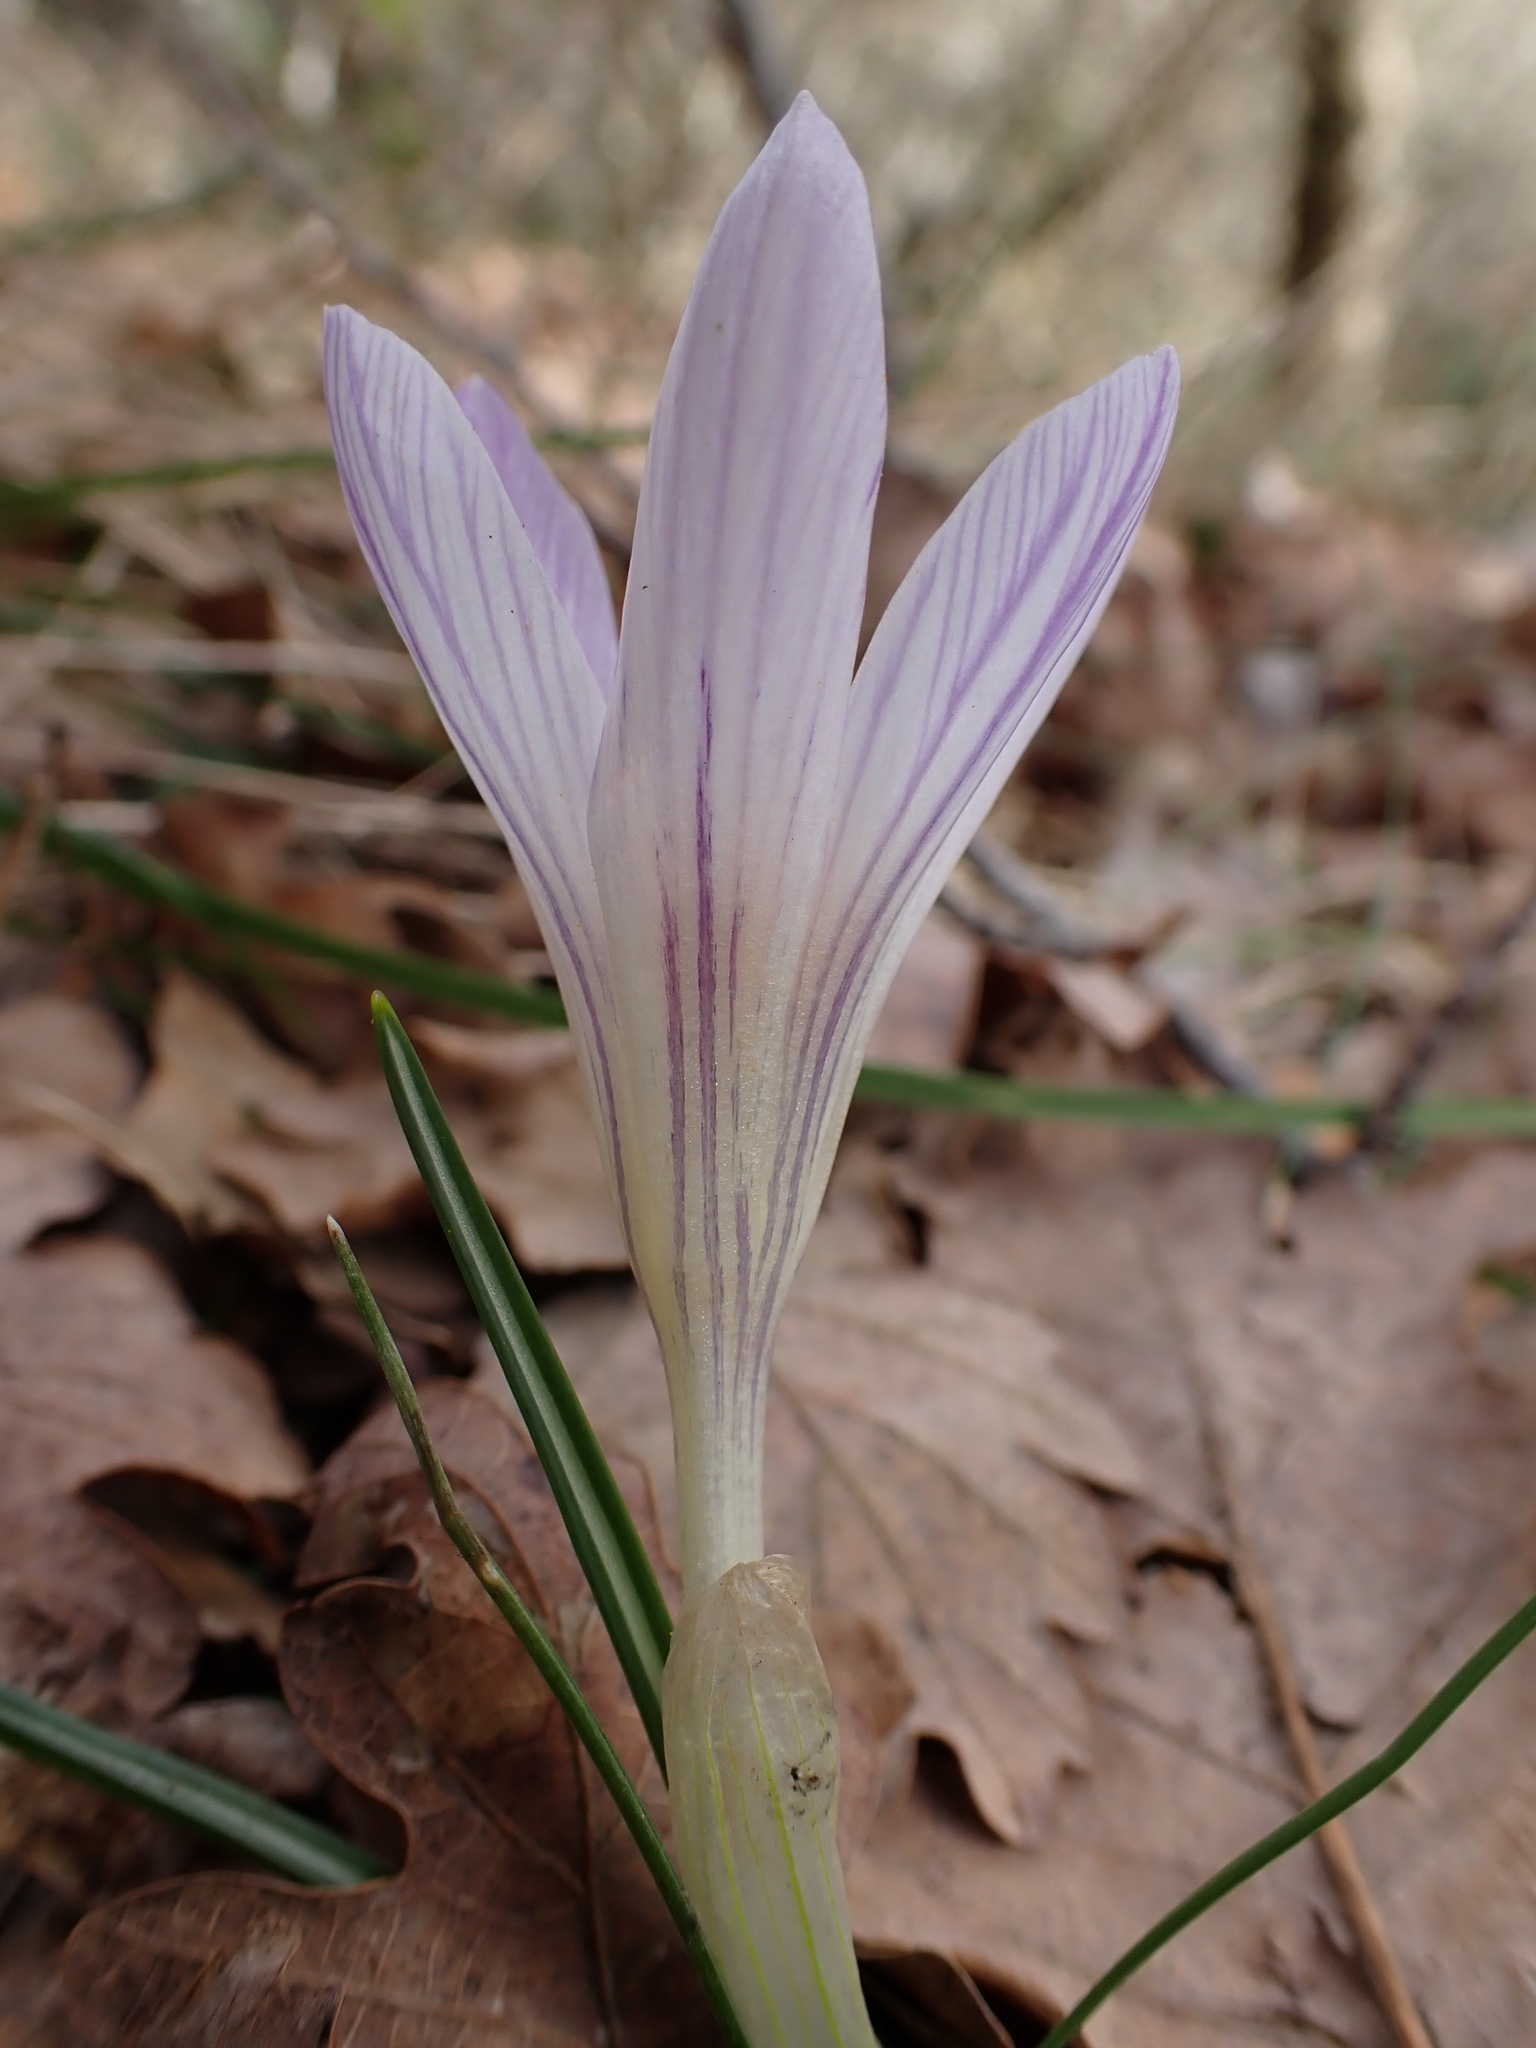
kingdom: Plantae
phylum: Tracheophyta
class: Liliopsida
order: Asparagales
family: Iridaceae
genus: Crocus
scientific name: Crocus versicolor
